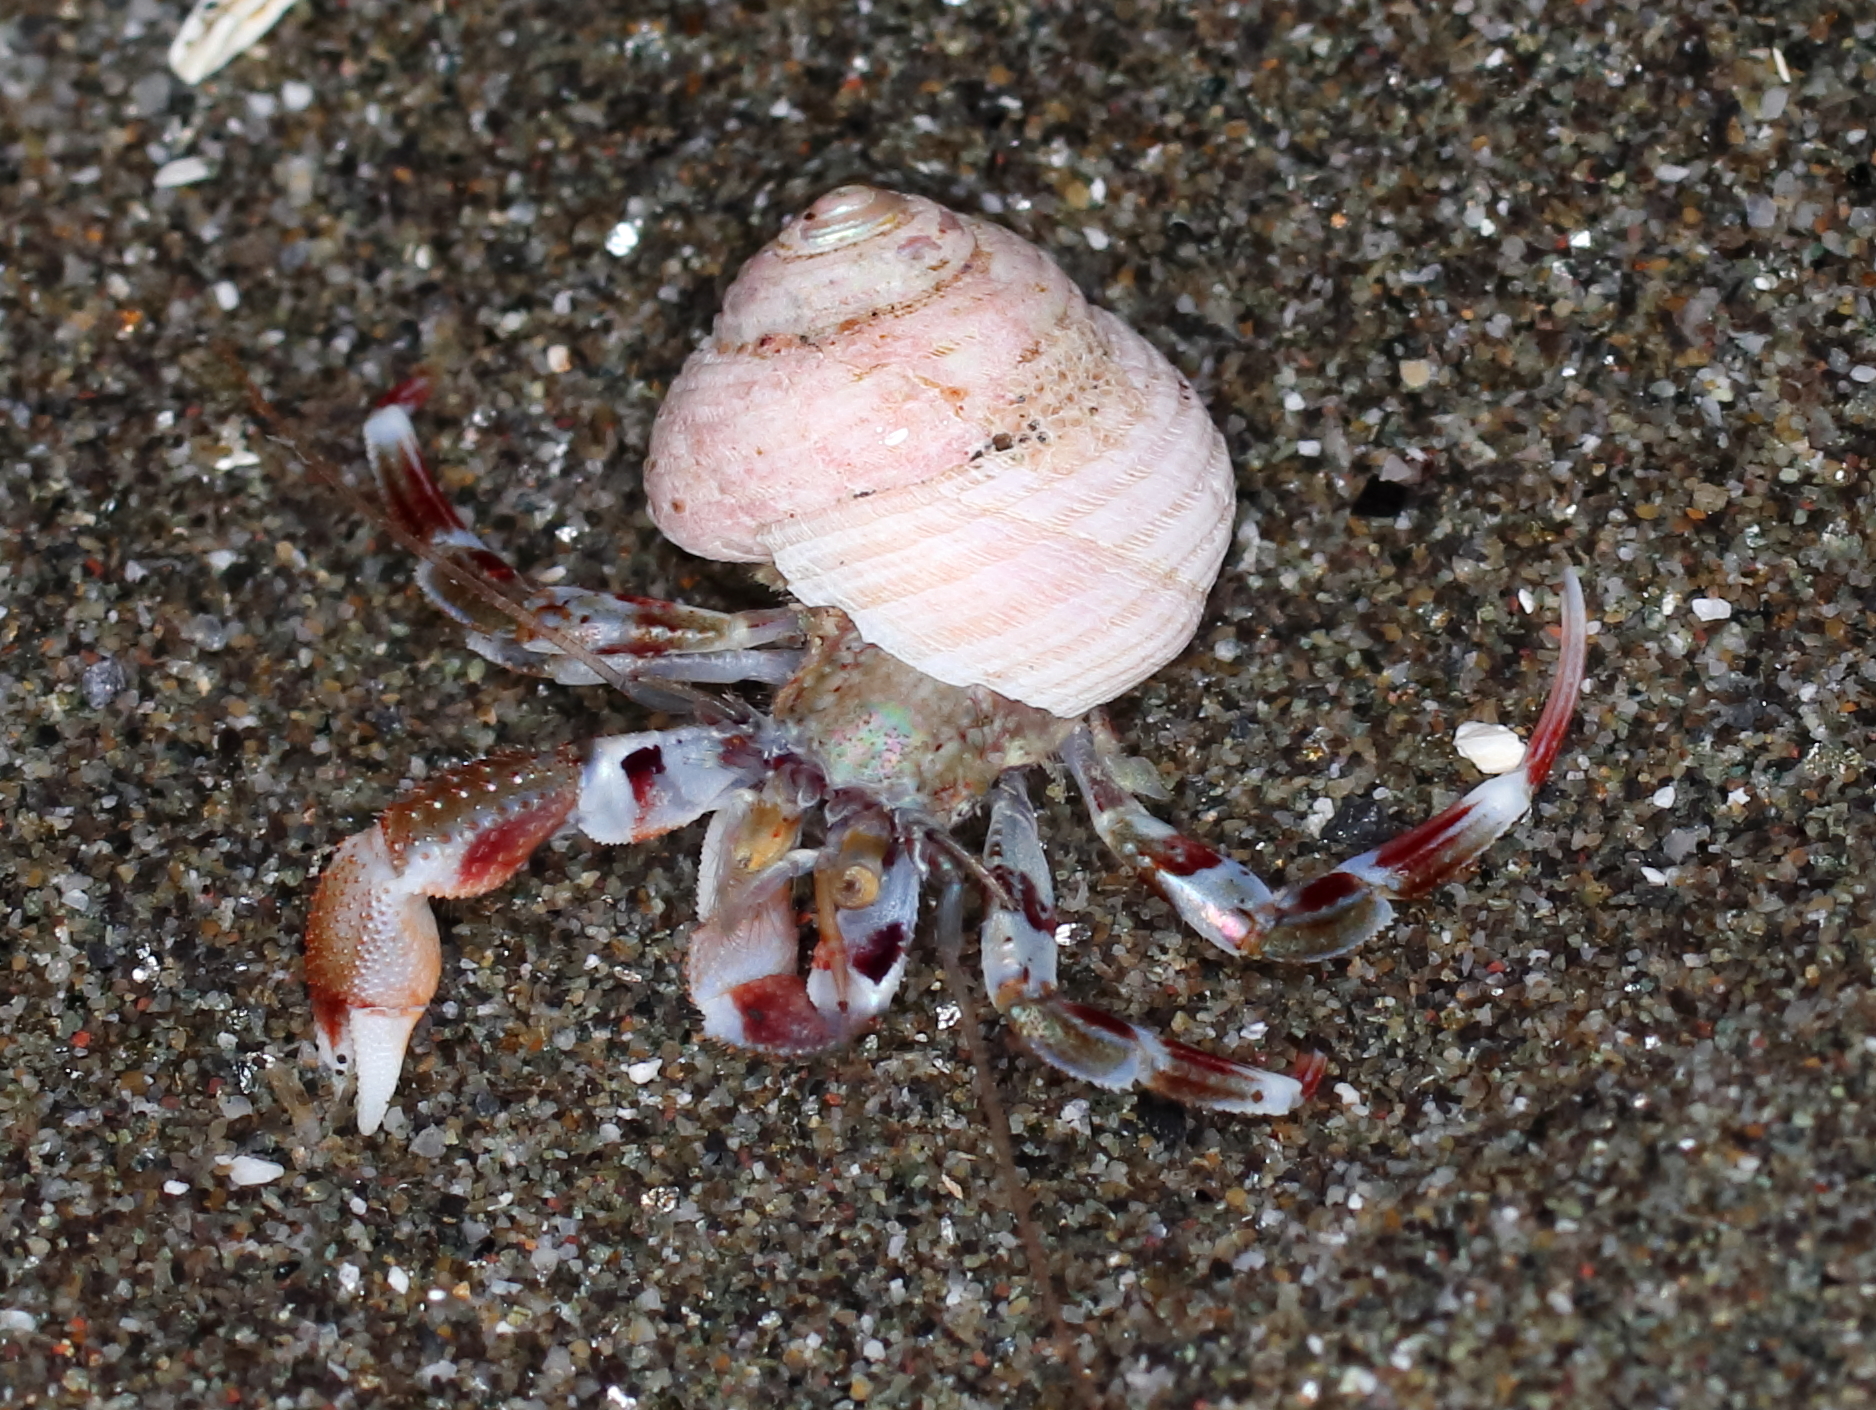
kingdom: Animalia
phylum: Arthropoda
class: Malacostraca
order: Decapoda
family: Paguridae
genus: Pagurus
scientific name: Pagurus ochotensis
